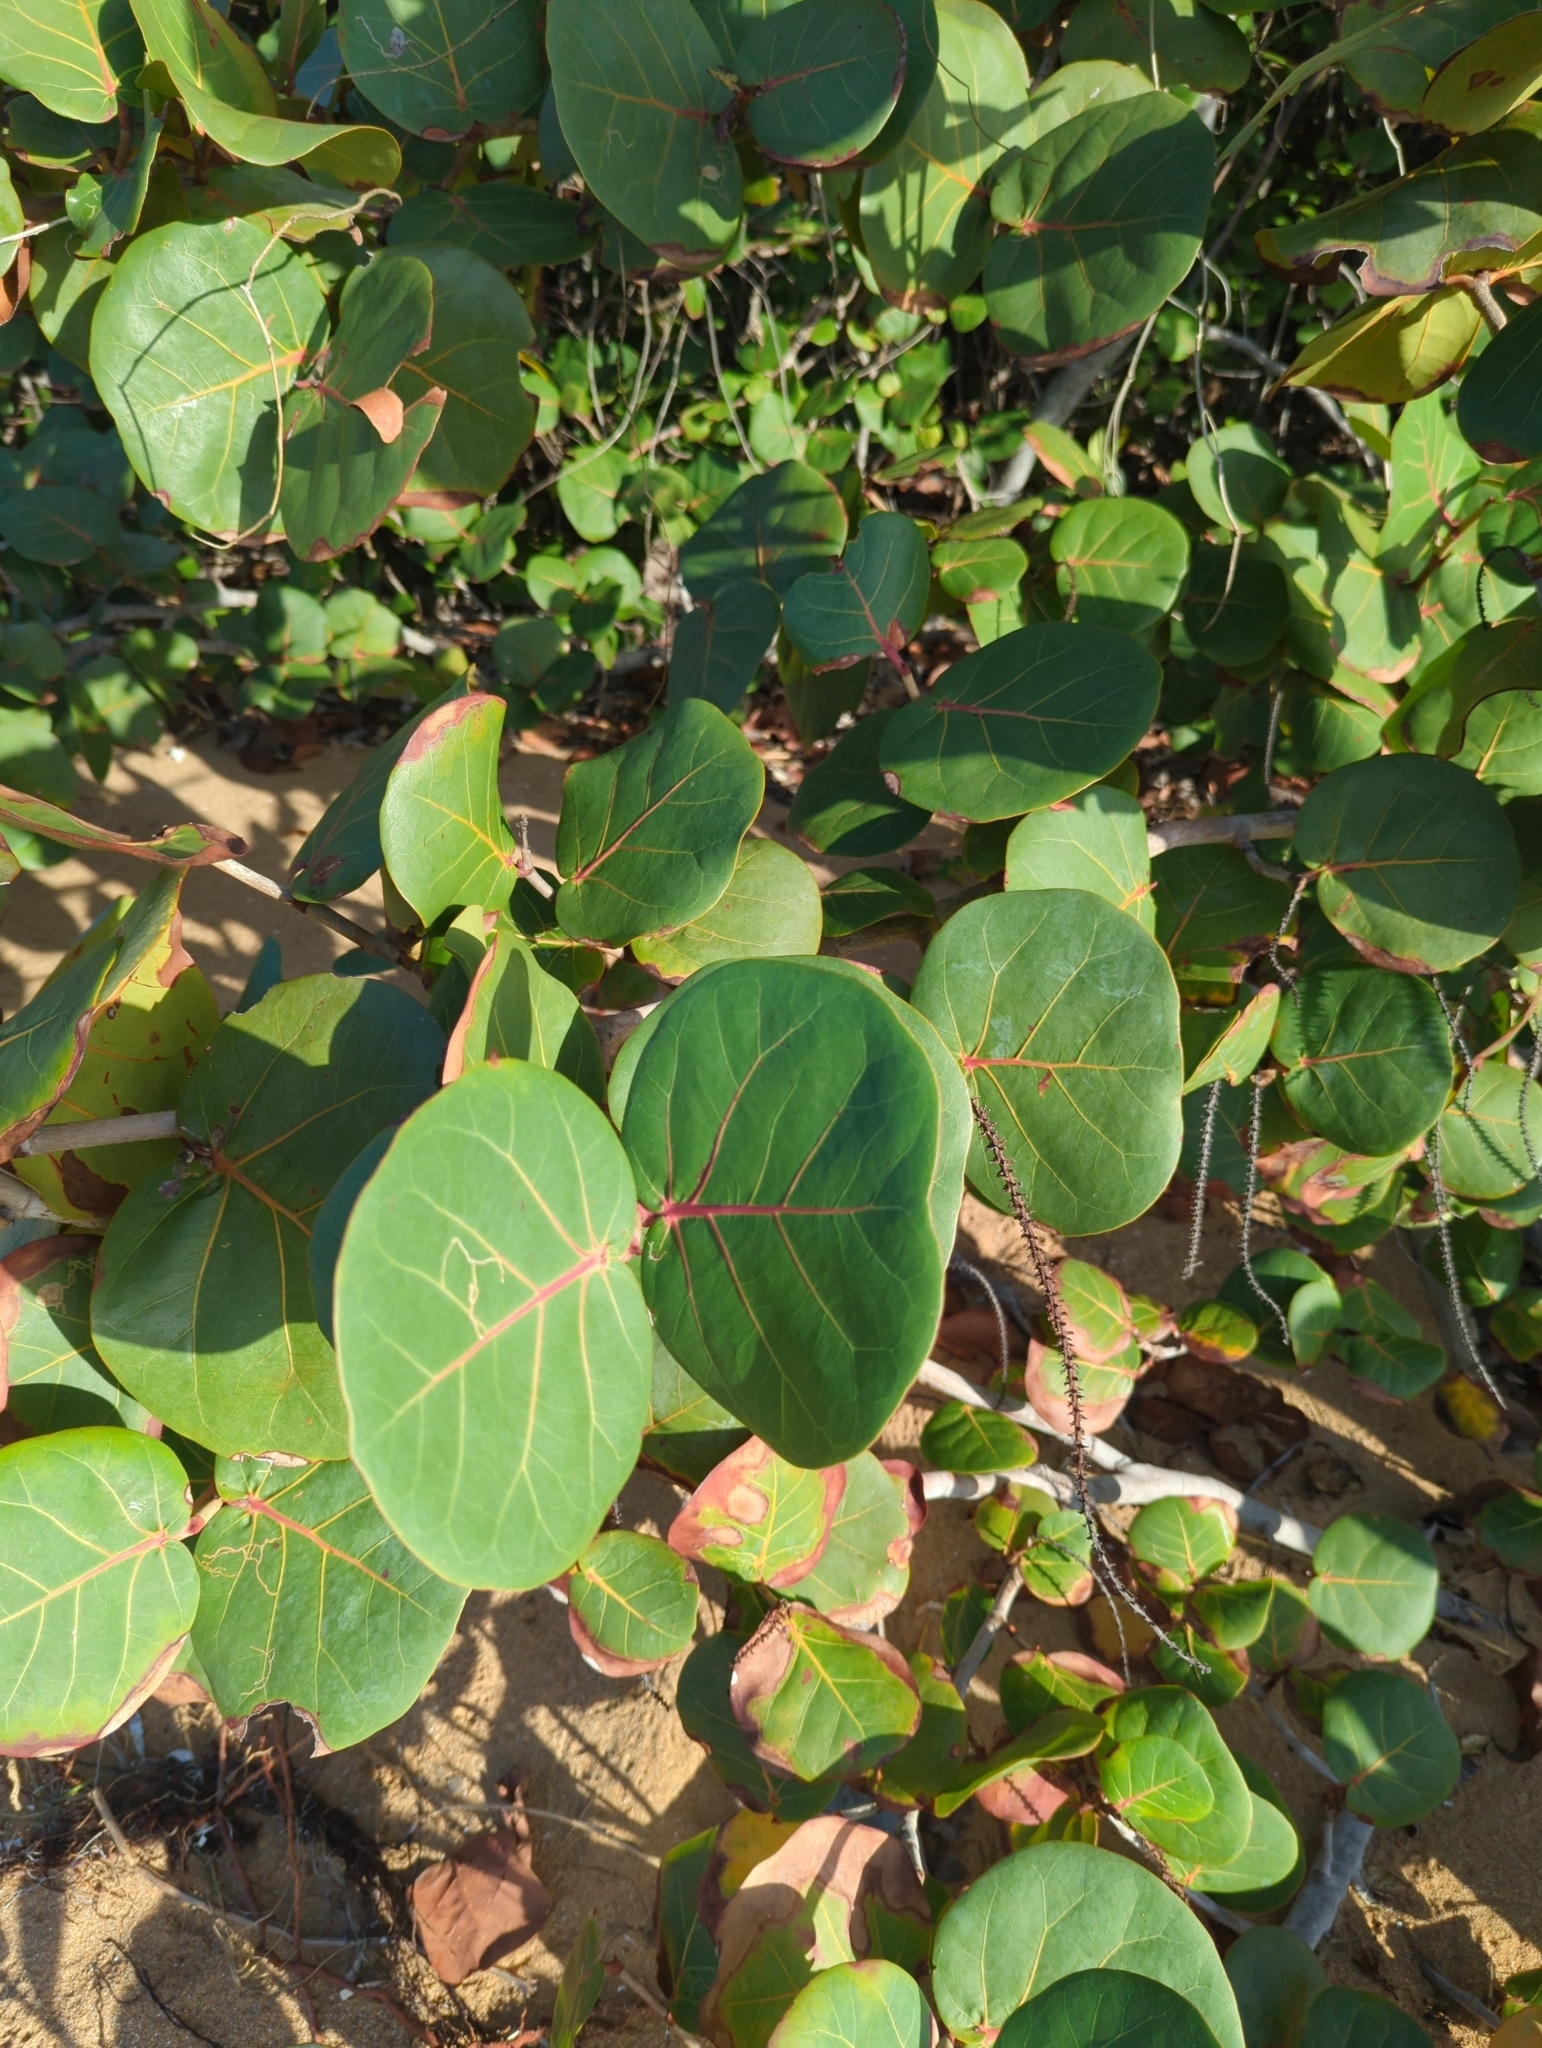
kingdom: Plantae
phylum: Tracheophyta
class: Magnoliopsida
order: Caryophyllales
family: Polygonaceae
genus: Coccoloba
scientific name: Coccoloba uvifera
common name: Seagrape
